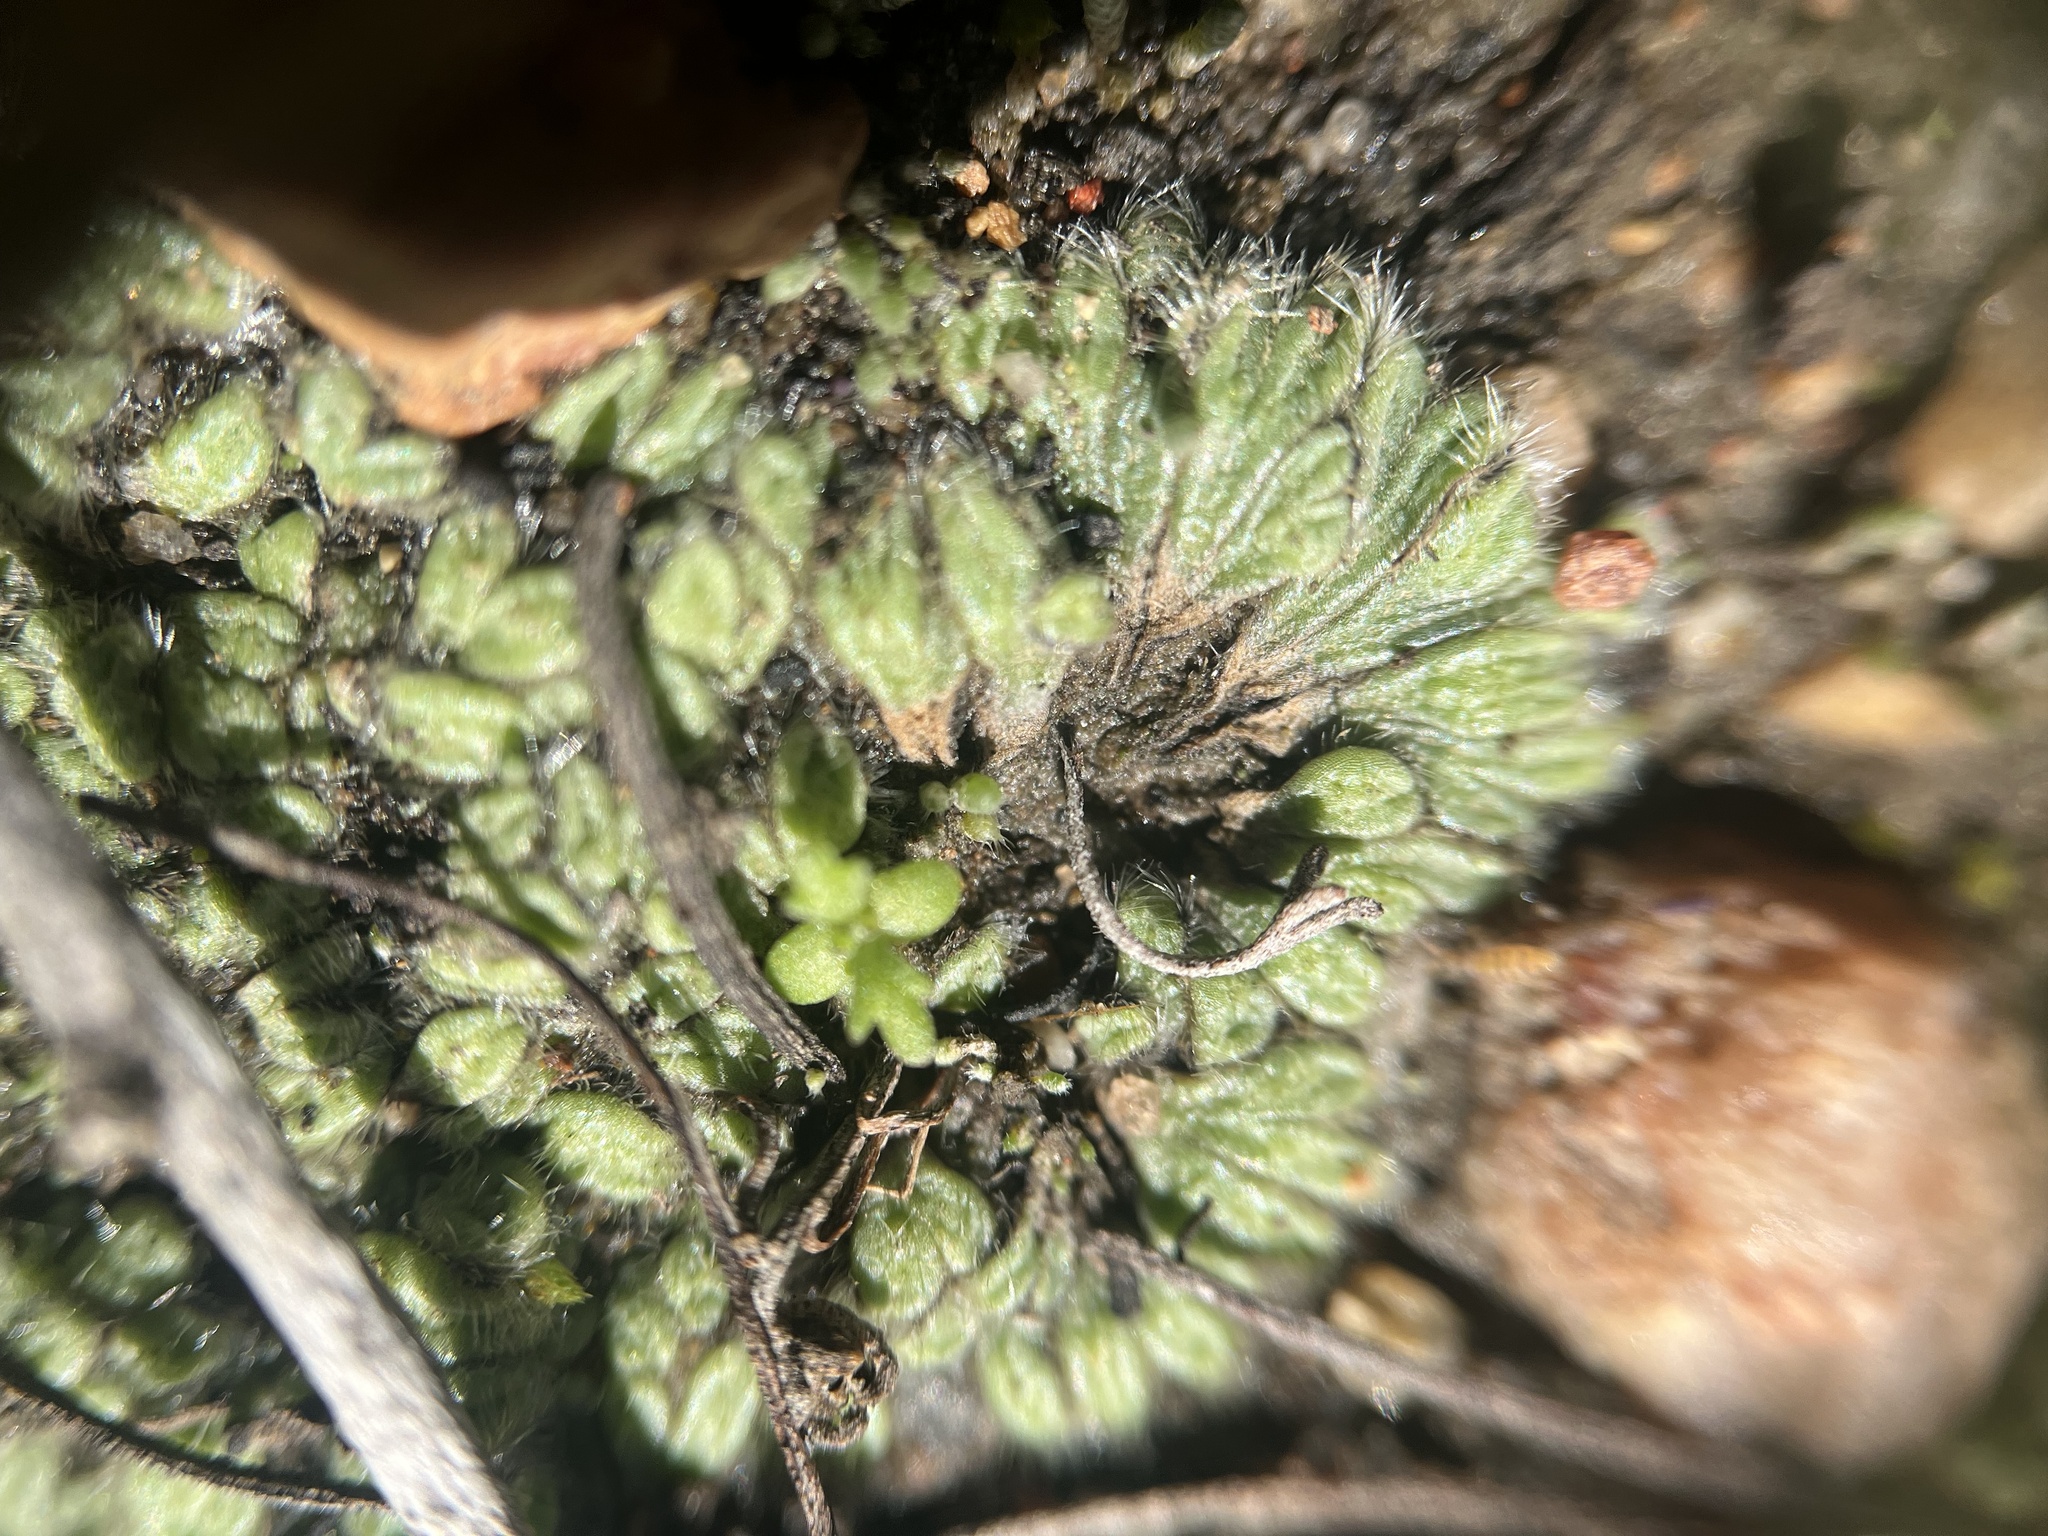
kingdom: Plantae
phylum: Marchantiophyta
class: Marchantiopsida
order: Marchantiales
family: Ricciaceae
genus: Riccia
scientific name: Riccia trichocarpa
